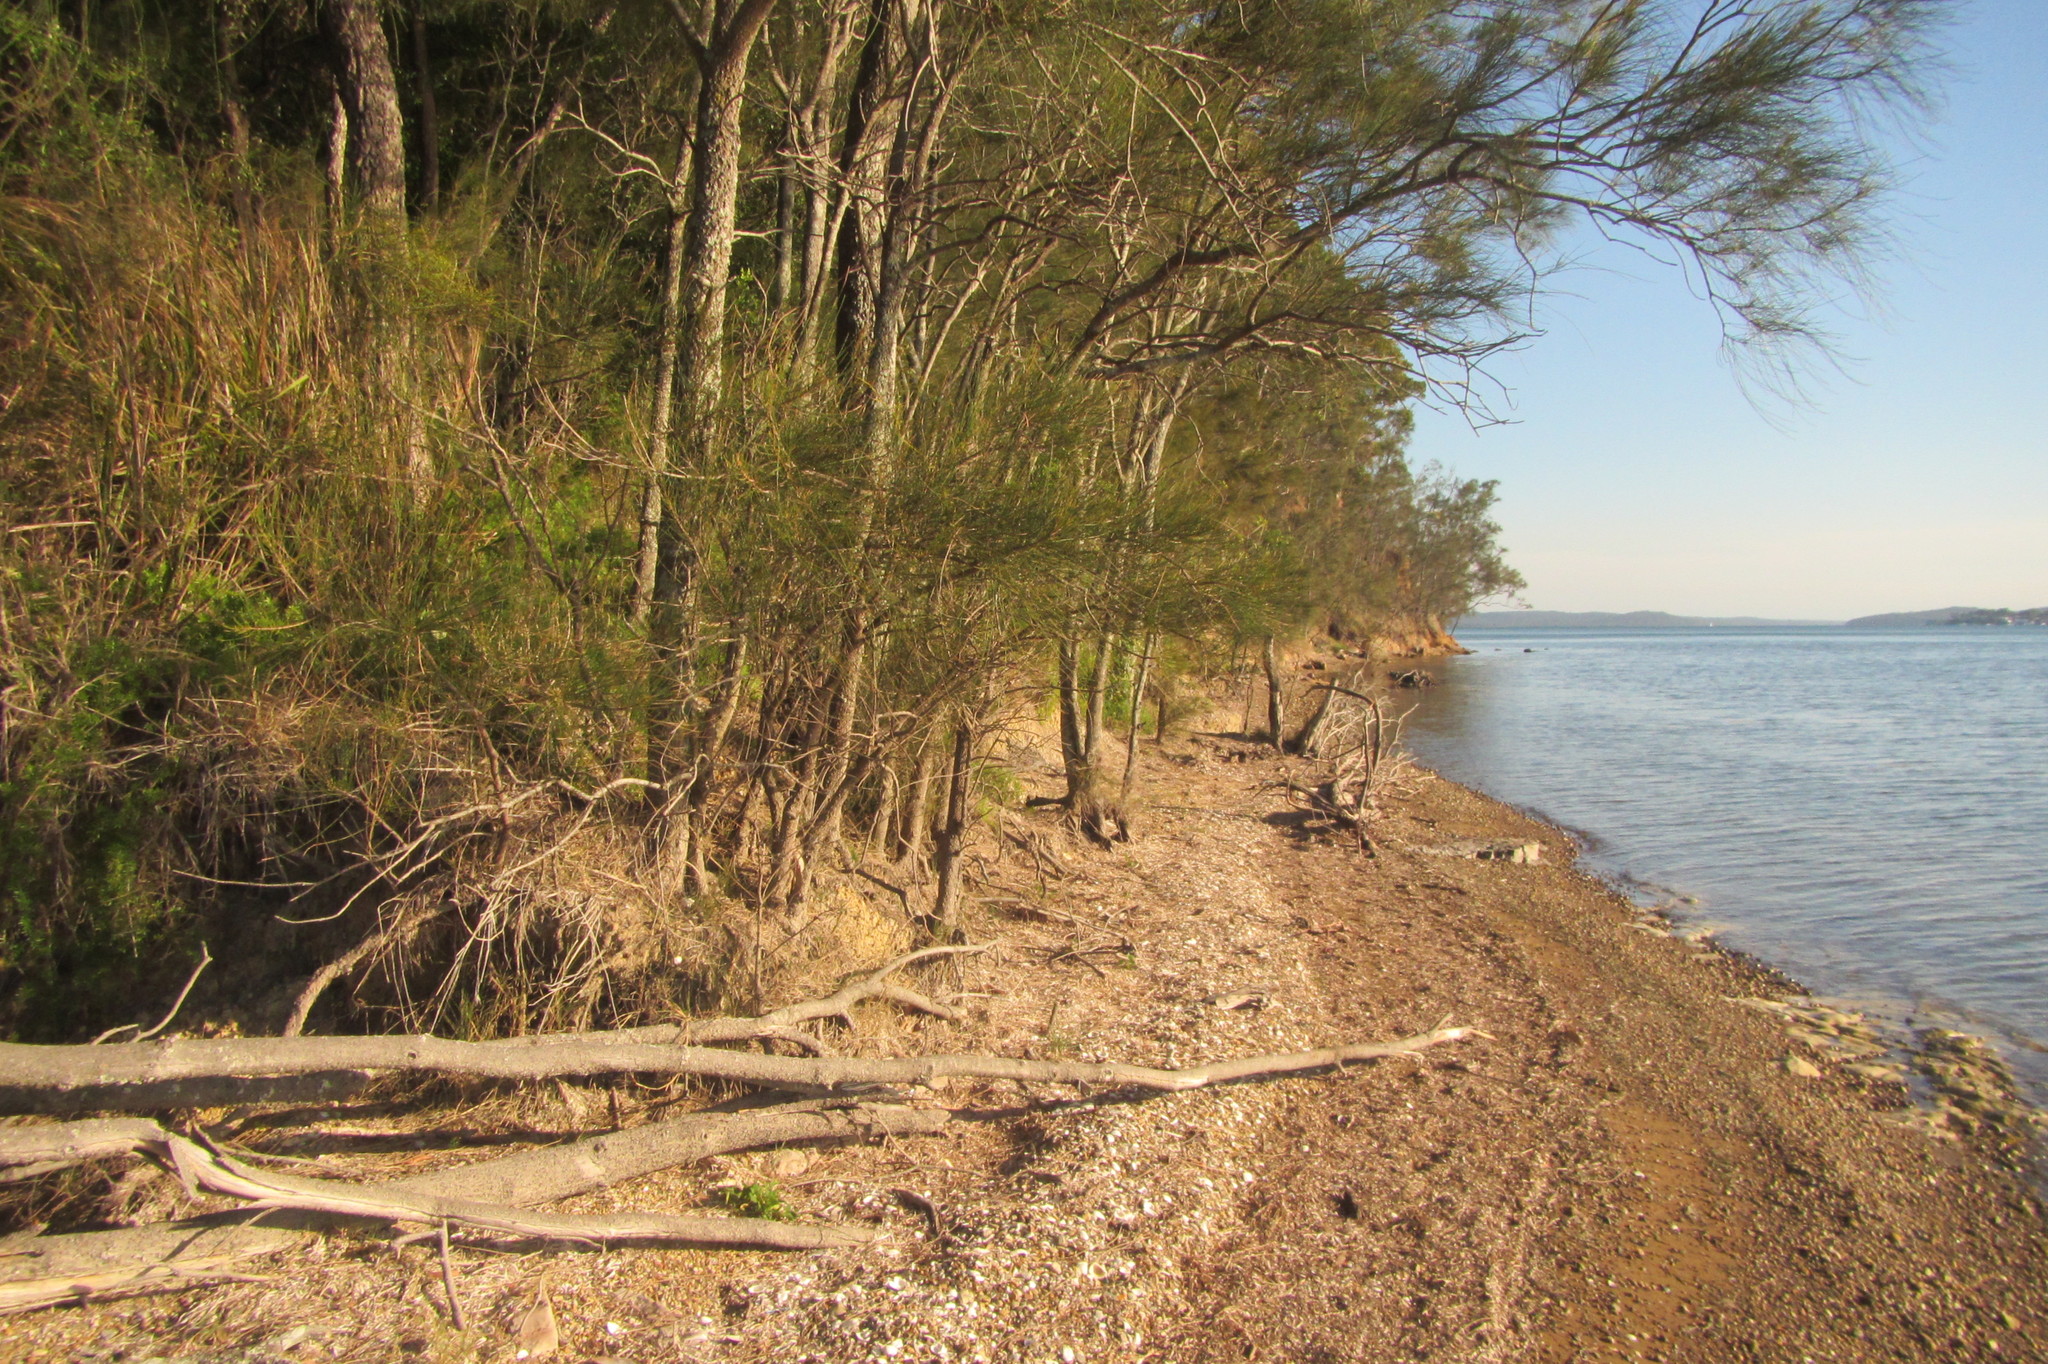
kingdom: Plantae
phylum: Tracheophyta
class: Magnoliopsida
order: Fagales
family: Casuarinaceae
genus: Casuarina
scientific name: Casuarina glauca
